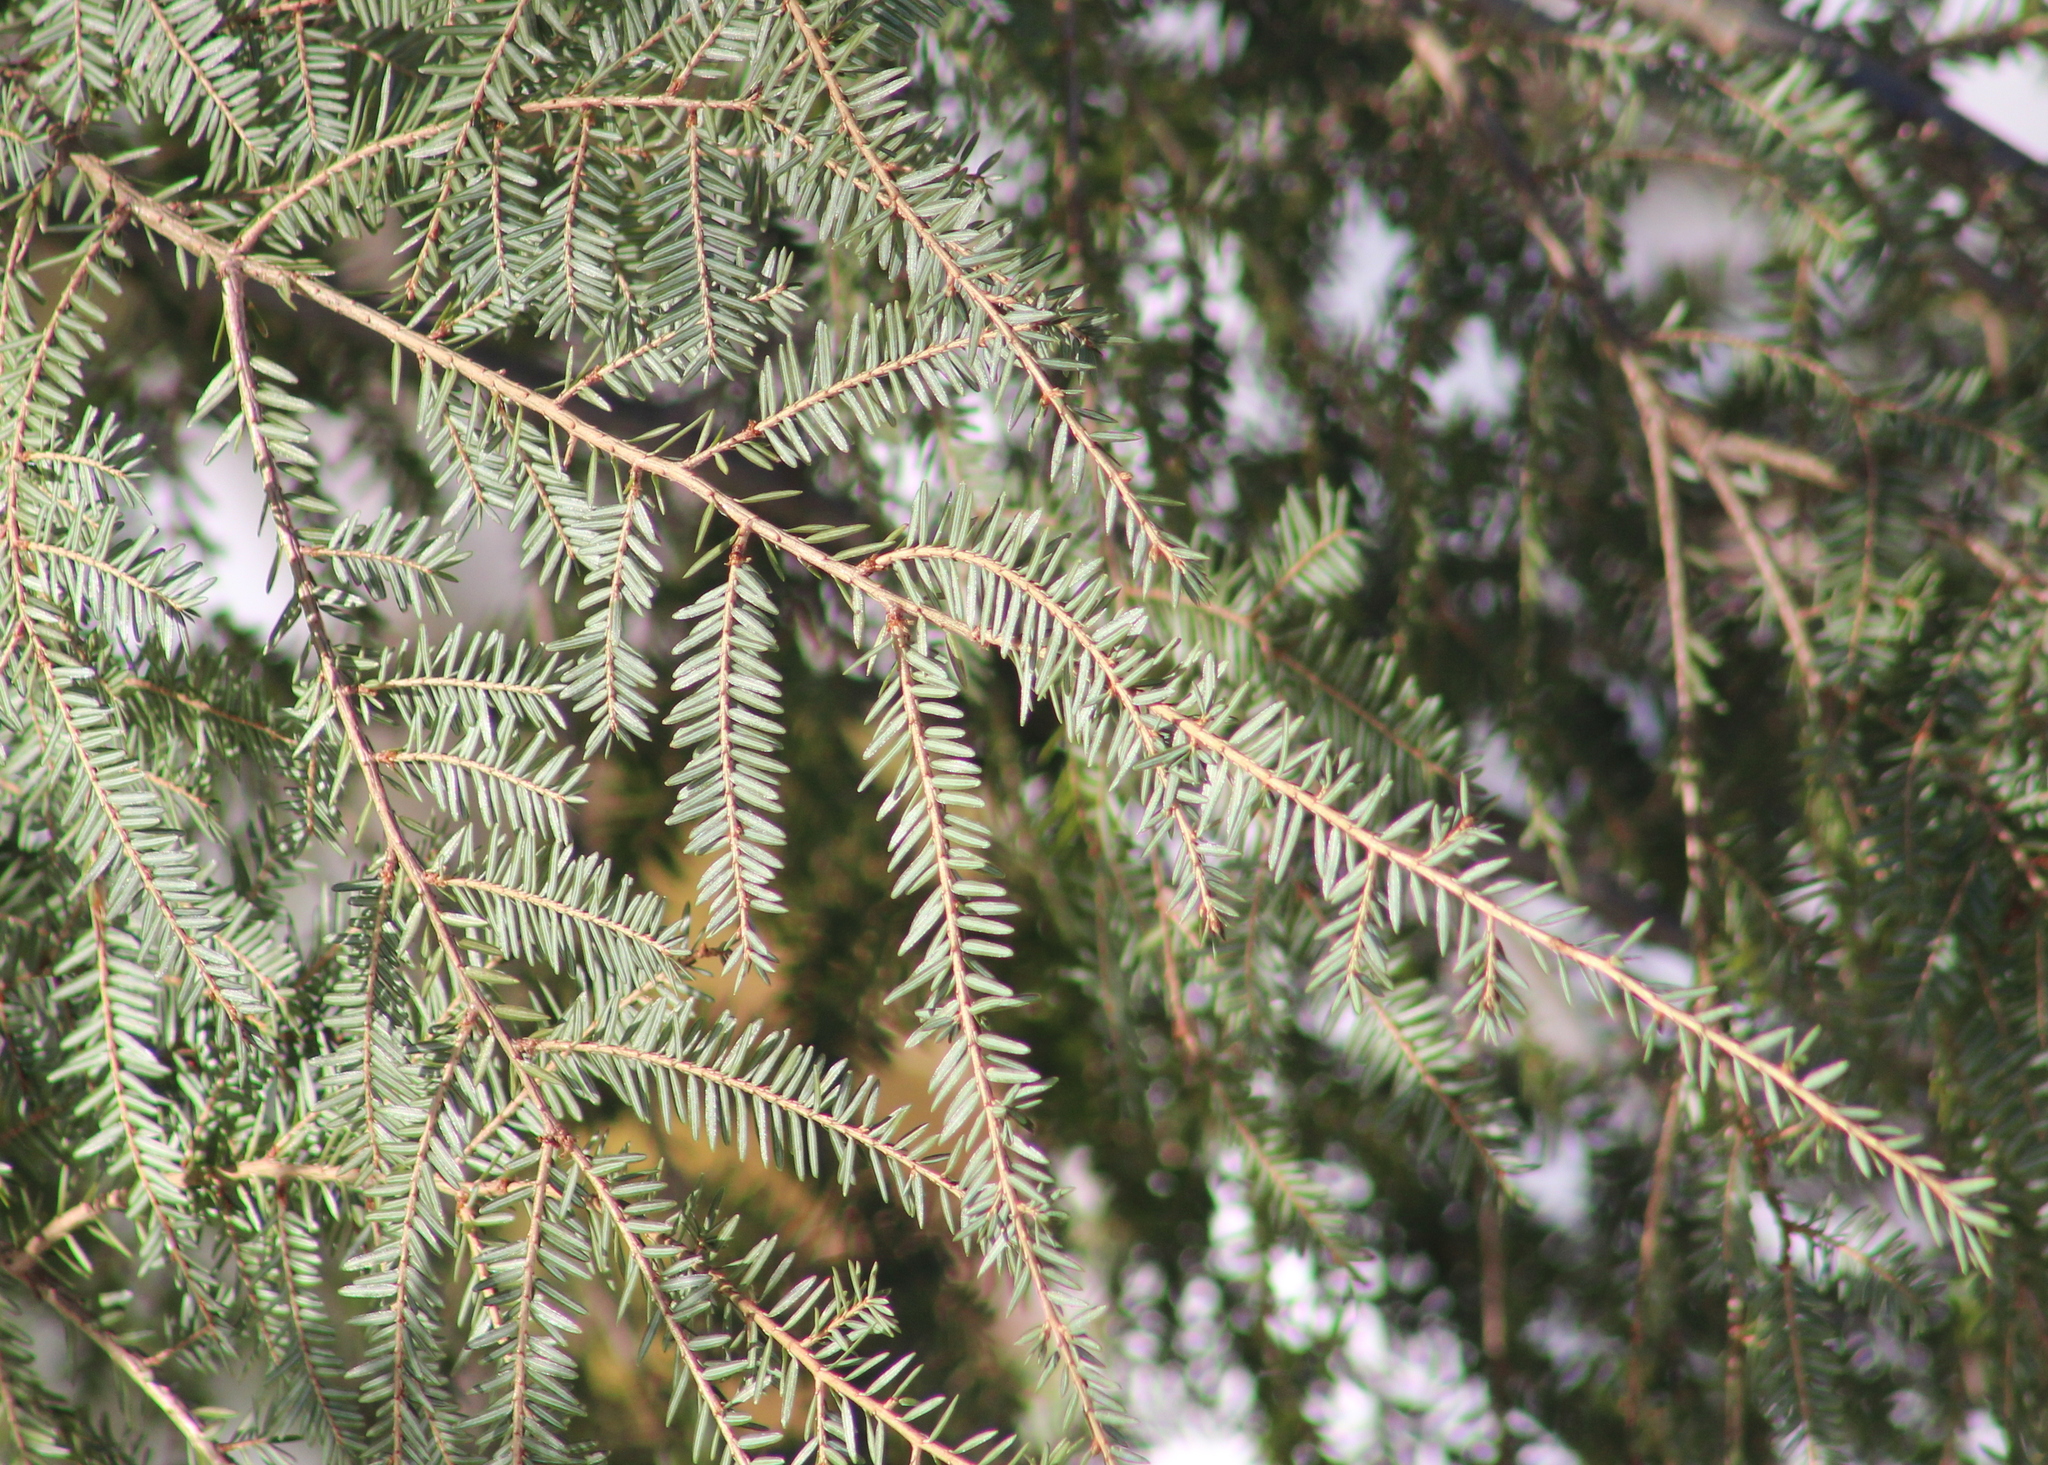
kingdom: Plantae
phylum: Tracheophyta
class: Pinopsida
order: Pinales
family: Pinaceae
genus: Tsuga
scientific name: Tsuga canadensis
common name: Eastern hemlock
